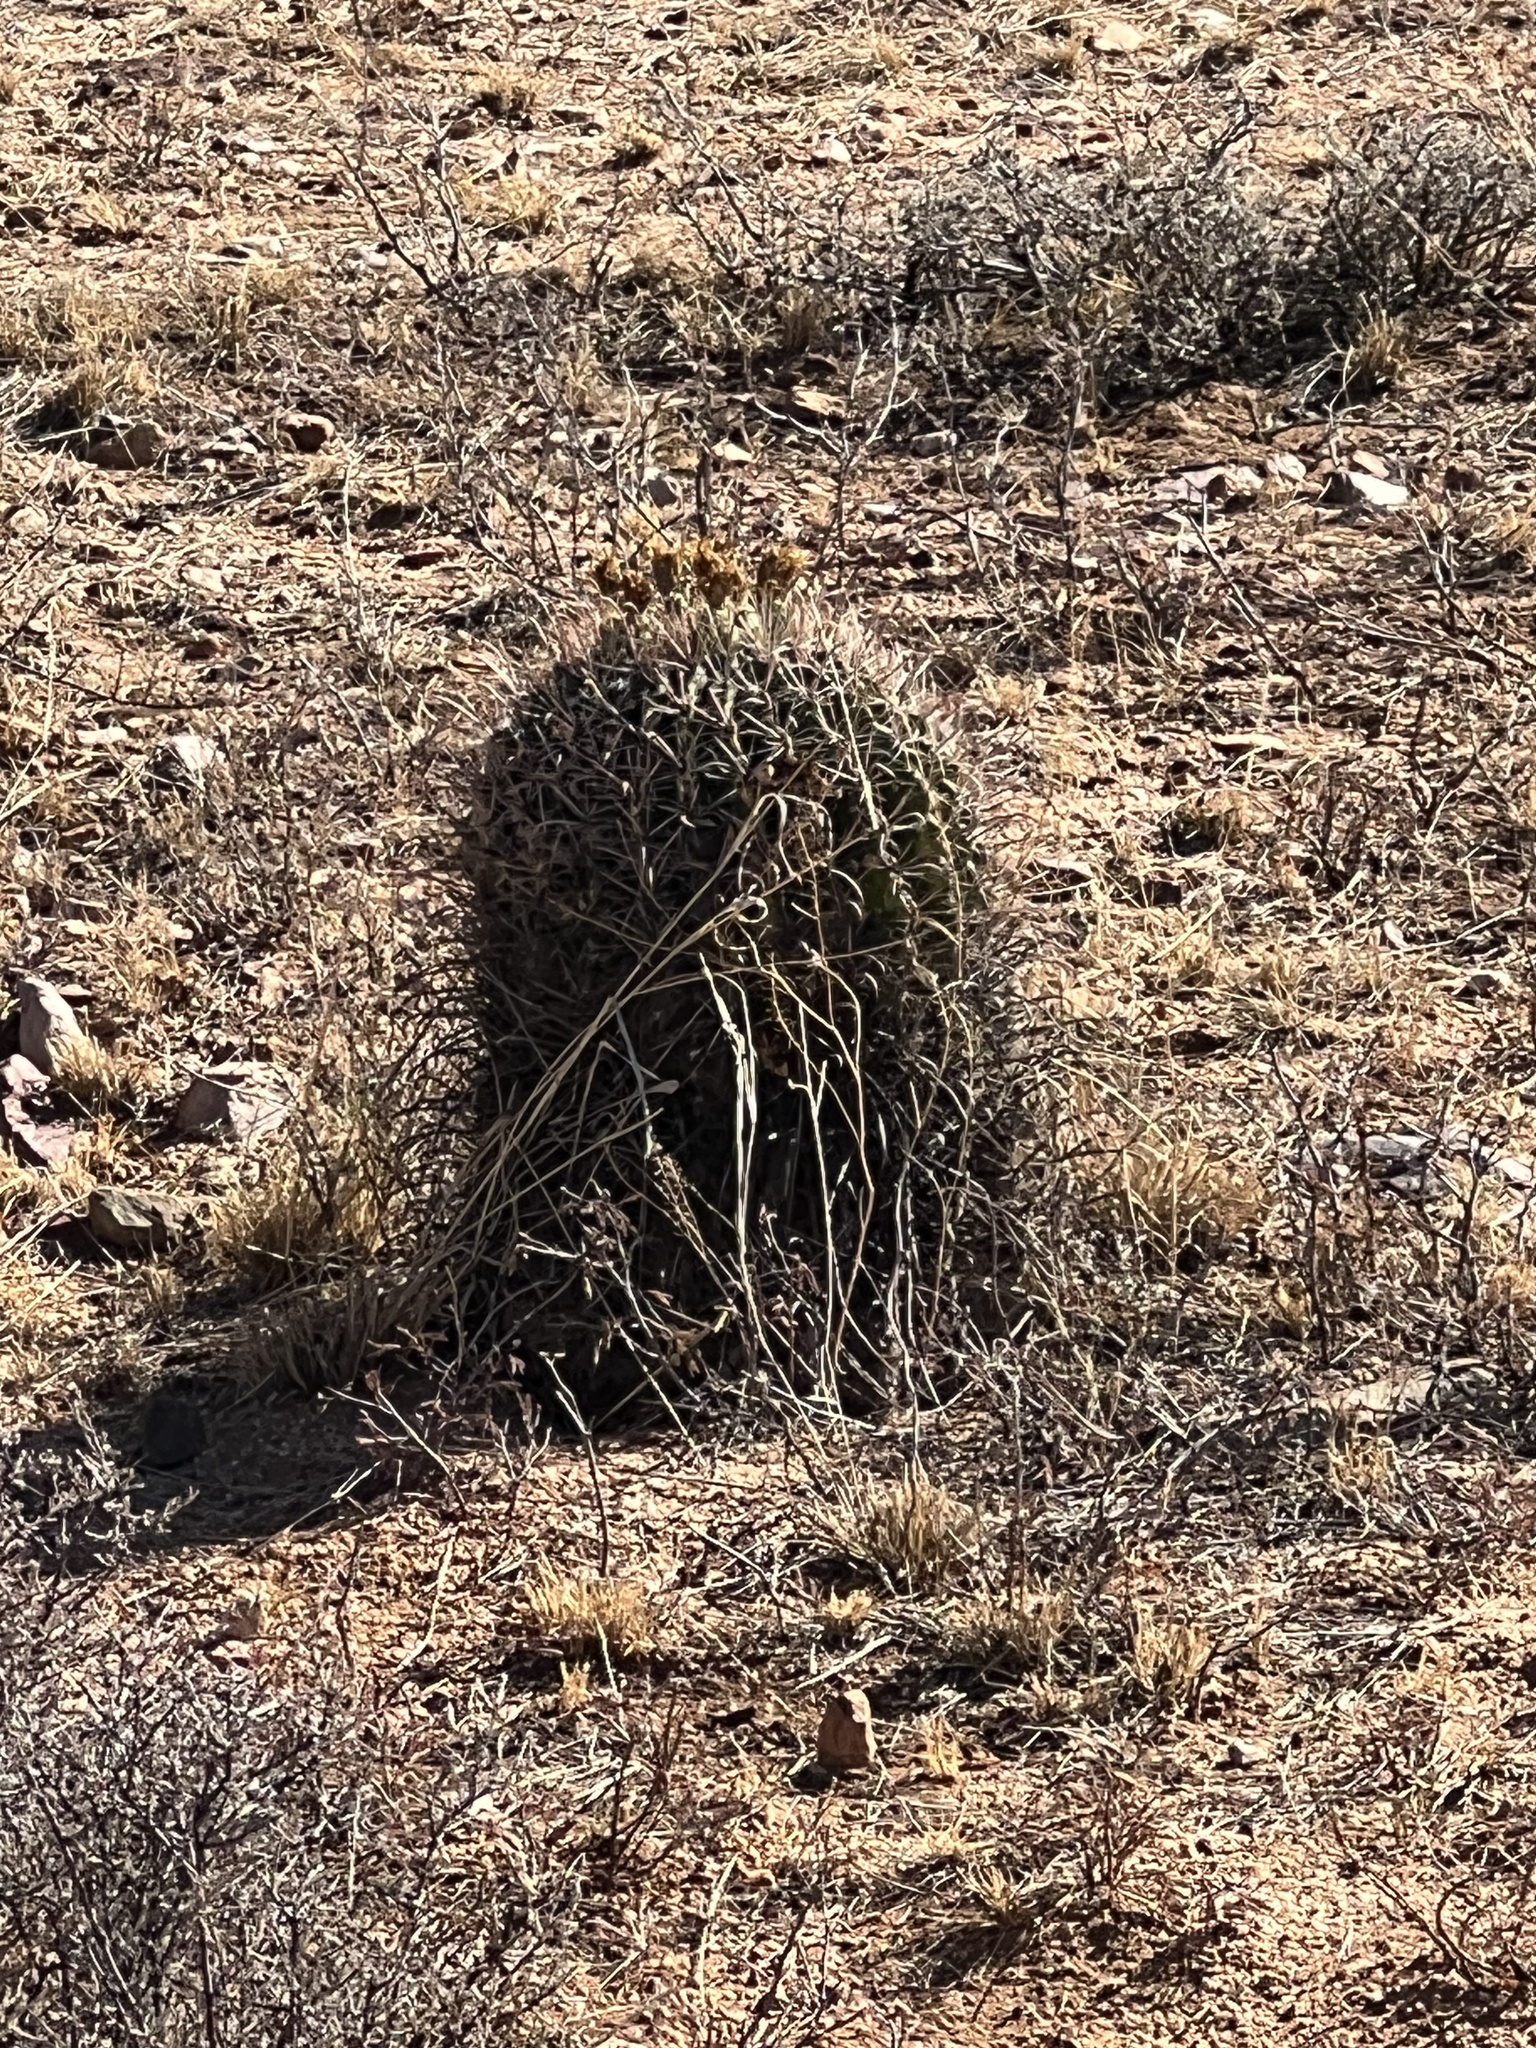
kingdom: Plantae
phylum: Tracheophyta
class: Magnoliopsida
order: Caryophyllales
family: Cactaceae
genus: Ferocactus
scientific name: Ferocactus wislizeni
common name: Candy barrel cactus
